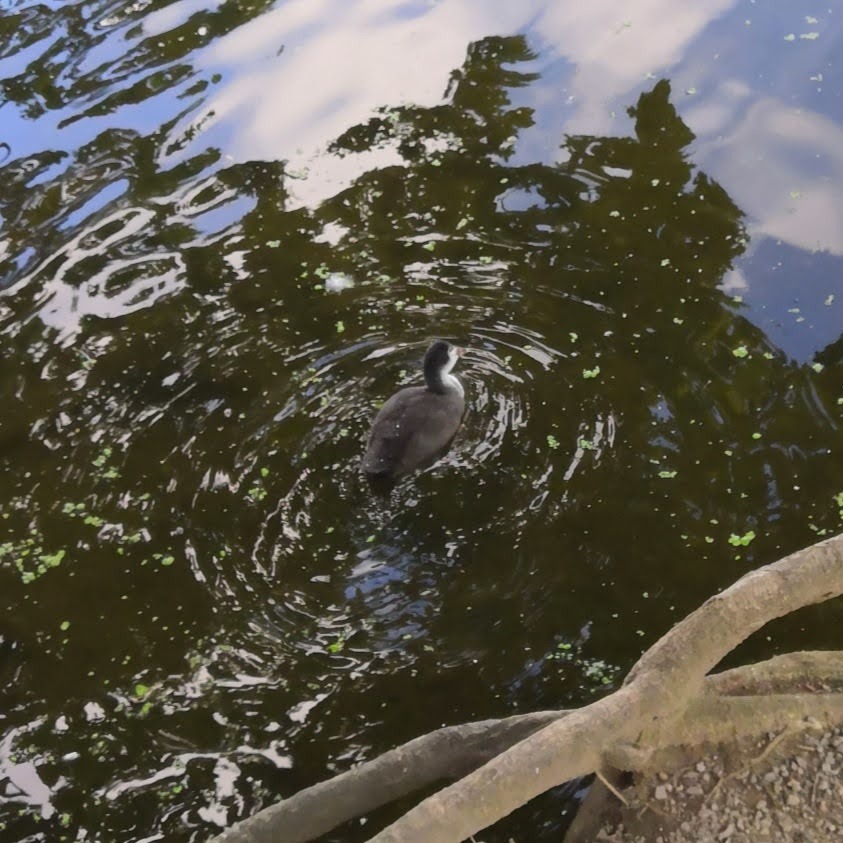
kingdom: Animalia
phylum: Chordata
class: Aves
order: Gruiformes
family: Rallidae
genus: Fulica
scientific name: Fulica atra
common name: Eurasian coot
